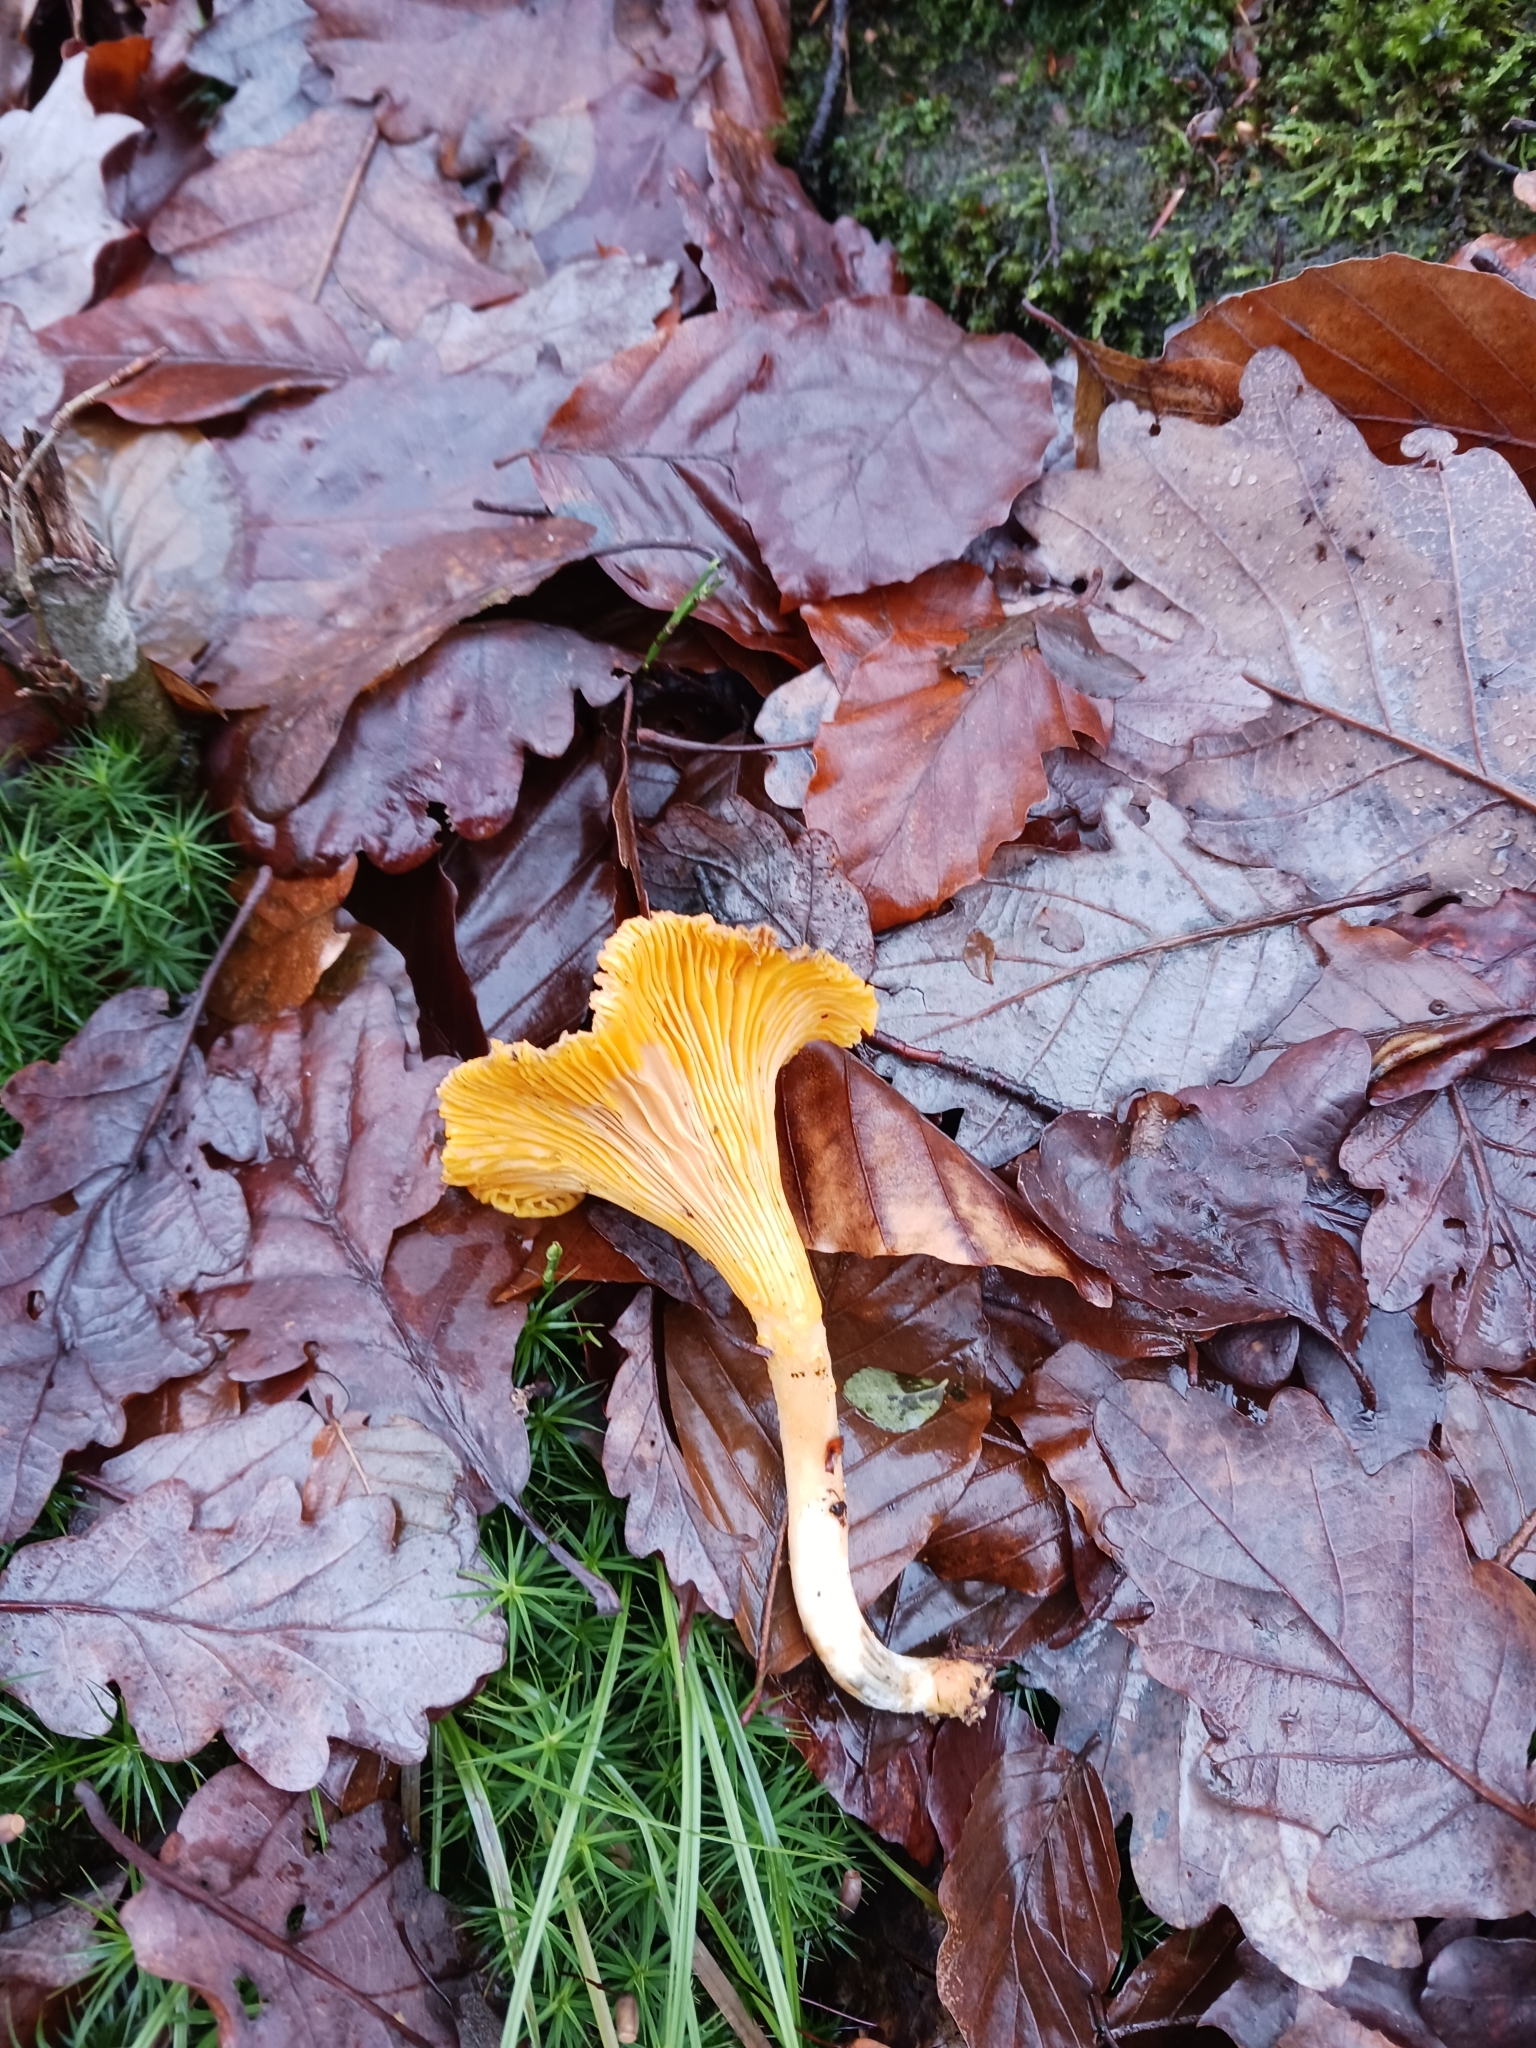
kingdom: Fungi
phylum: Basidiomycota
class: Agaricomycetes
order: Cantharellales
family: Hydnaceae
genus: Cantharellus
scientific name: Cantharellus cibarius
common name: Chanterelle
